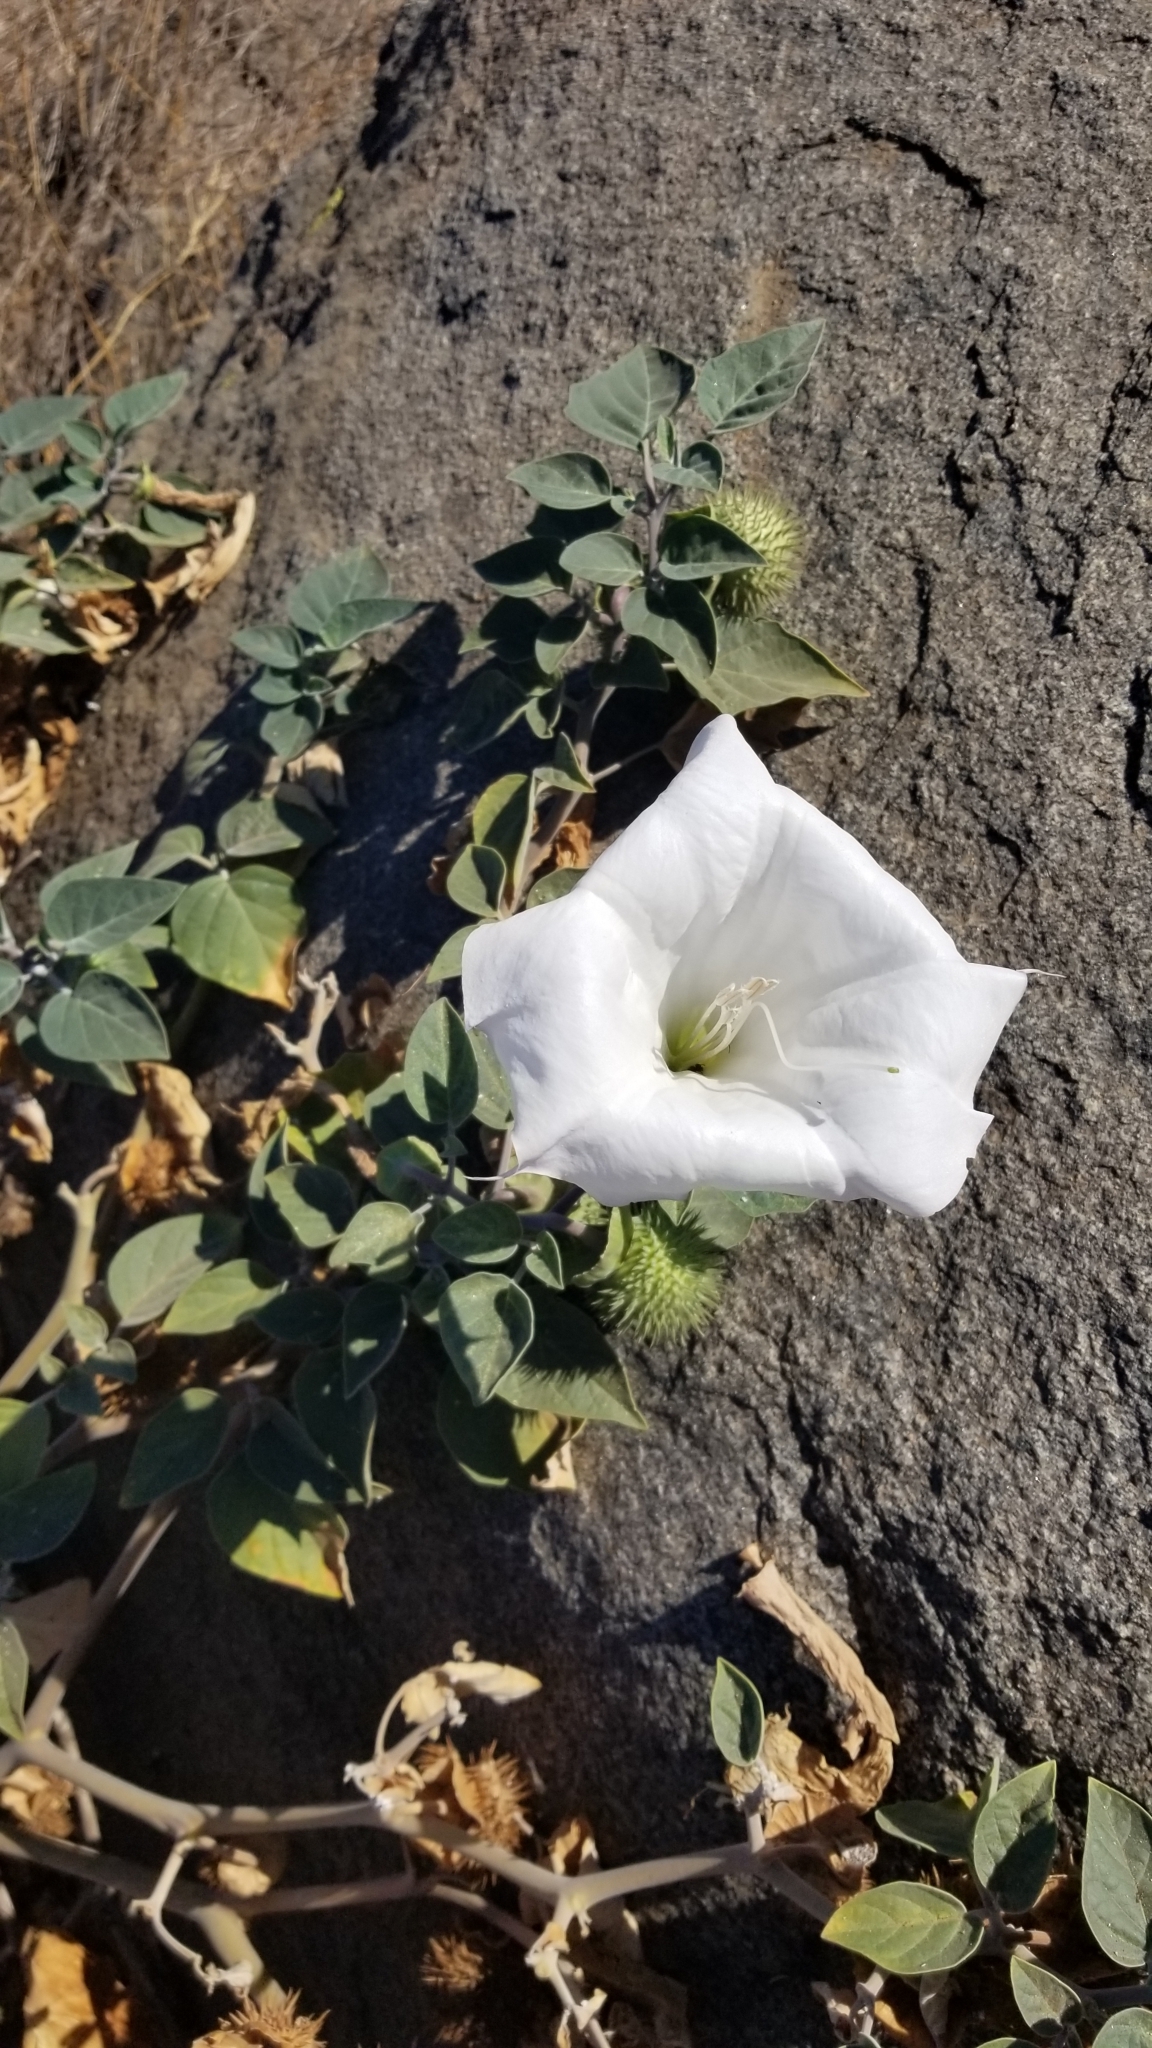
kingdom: Plantae
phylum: Tracheophyta
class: Magnoliopsida
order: Solanales
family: Solanaceae
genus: Datura
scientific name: Datura wrightii
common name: Sacred thorn-apple
